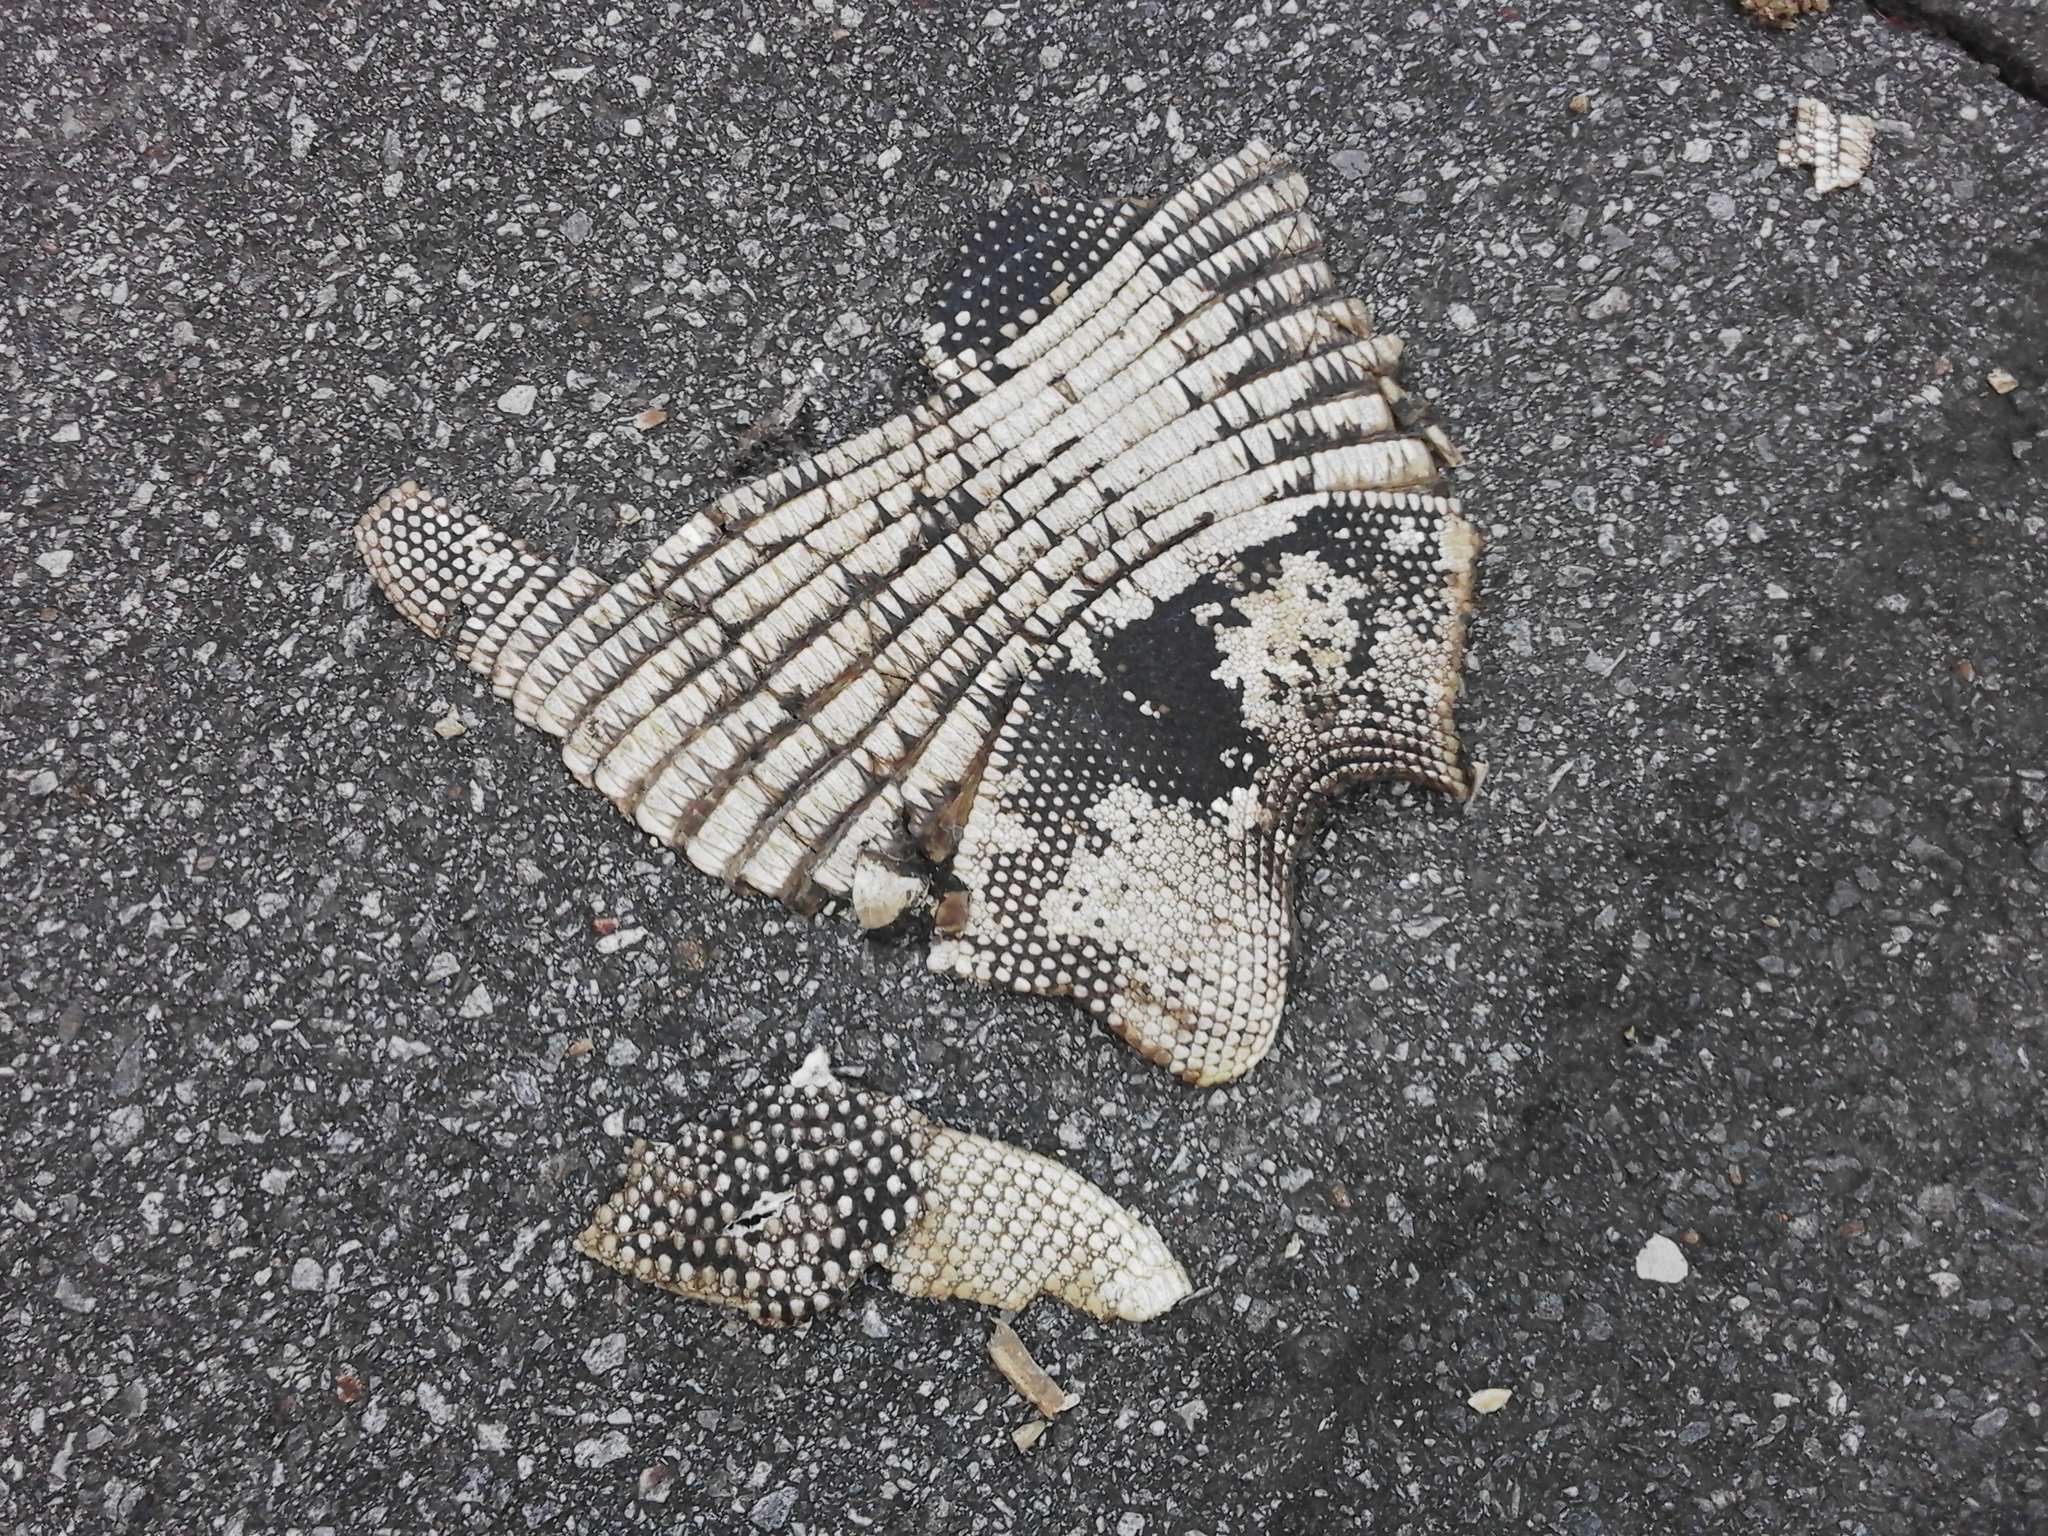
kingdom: Animalia
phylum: Chordata
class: Mammalia
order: Cingulata
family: Dasypodidae
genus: Dasypus
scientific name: Dasypus novemcinctus
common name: Nine-banded armadillo
